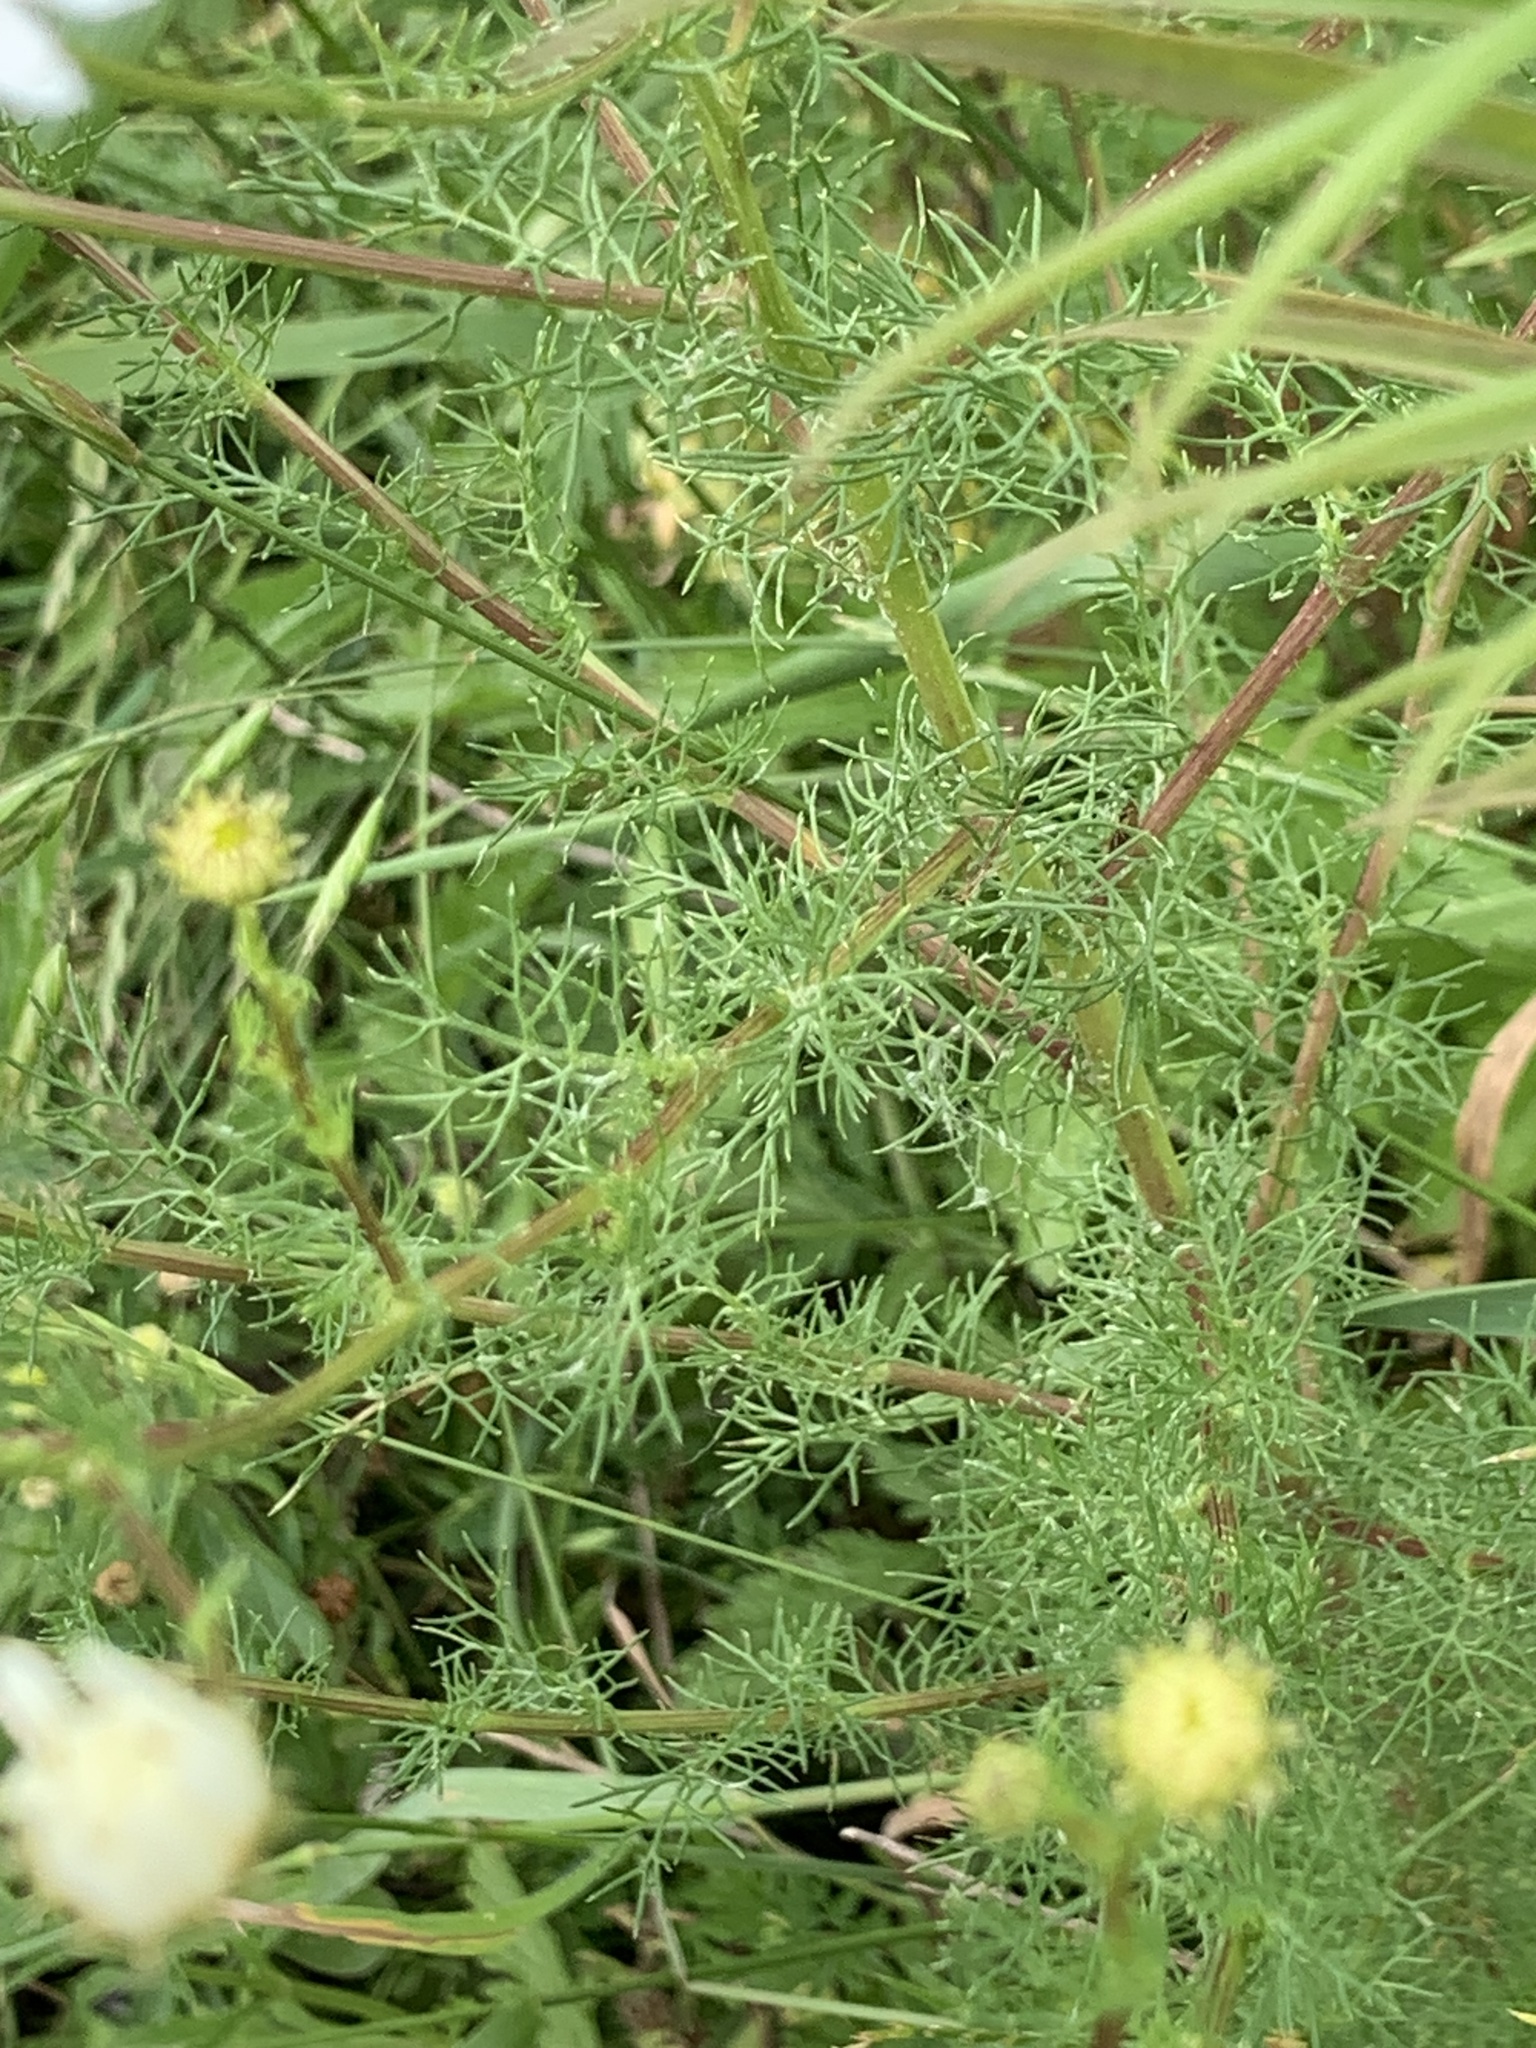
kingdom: Plantae
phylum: Tracheophyta
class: Magnoliopsida
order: Asterales
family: Asteraceae
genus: Tripleurospermum
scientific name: Tripleurospermum inodorum
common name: Scentless mayweed
